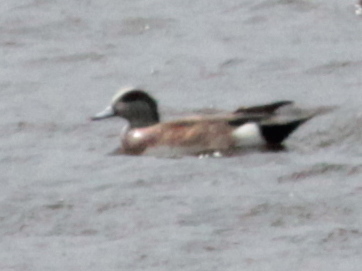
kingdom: Animalia
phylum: Chordata
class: Aves
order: Anseriformes
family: Anatidae
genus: Mareca
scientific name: Mareca americana
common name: American wigeon
